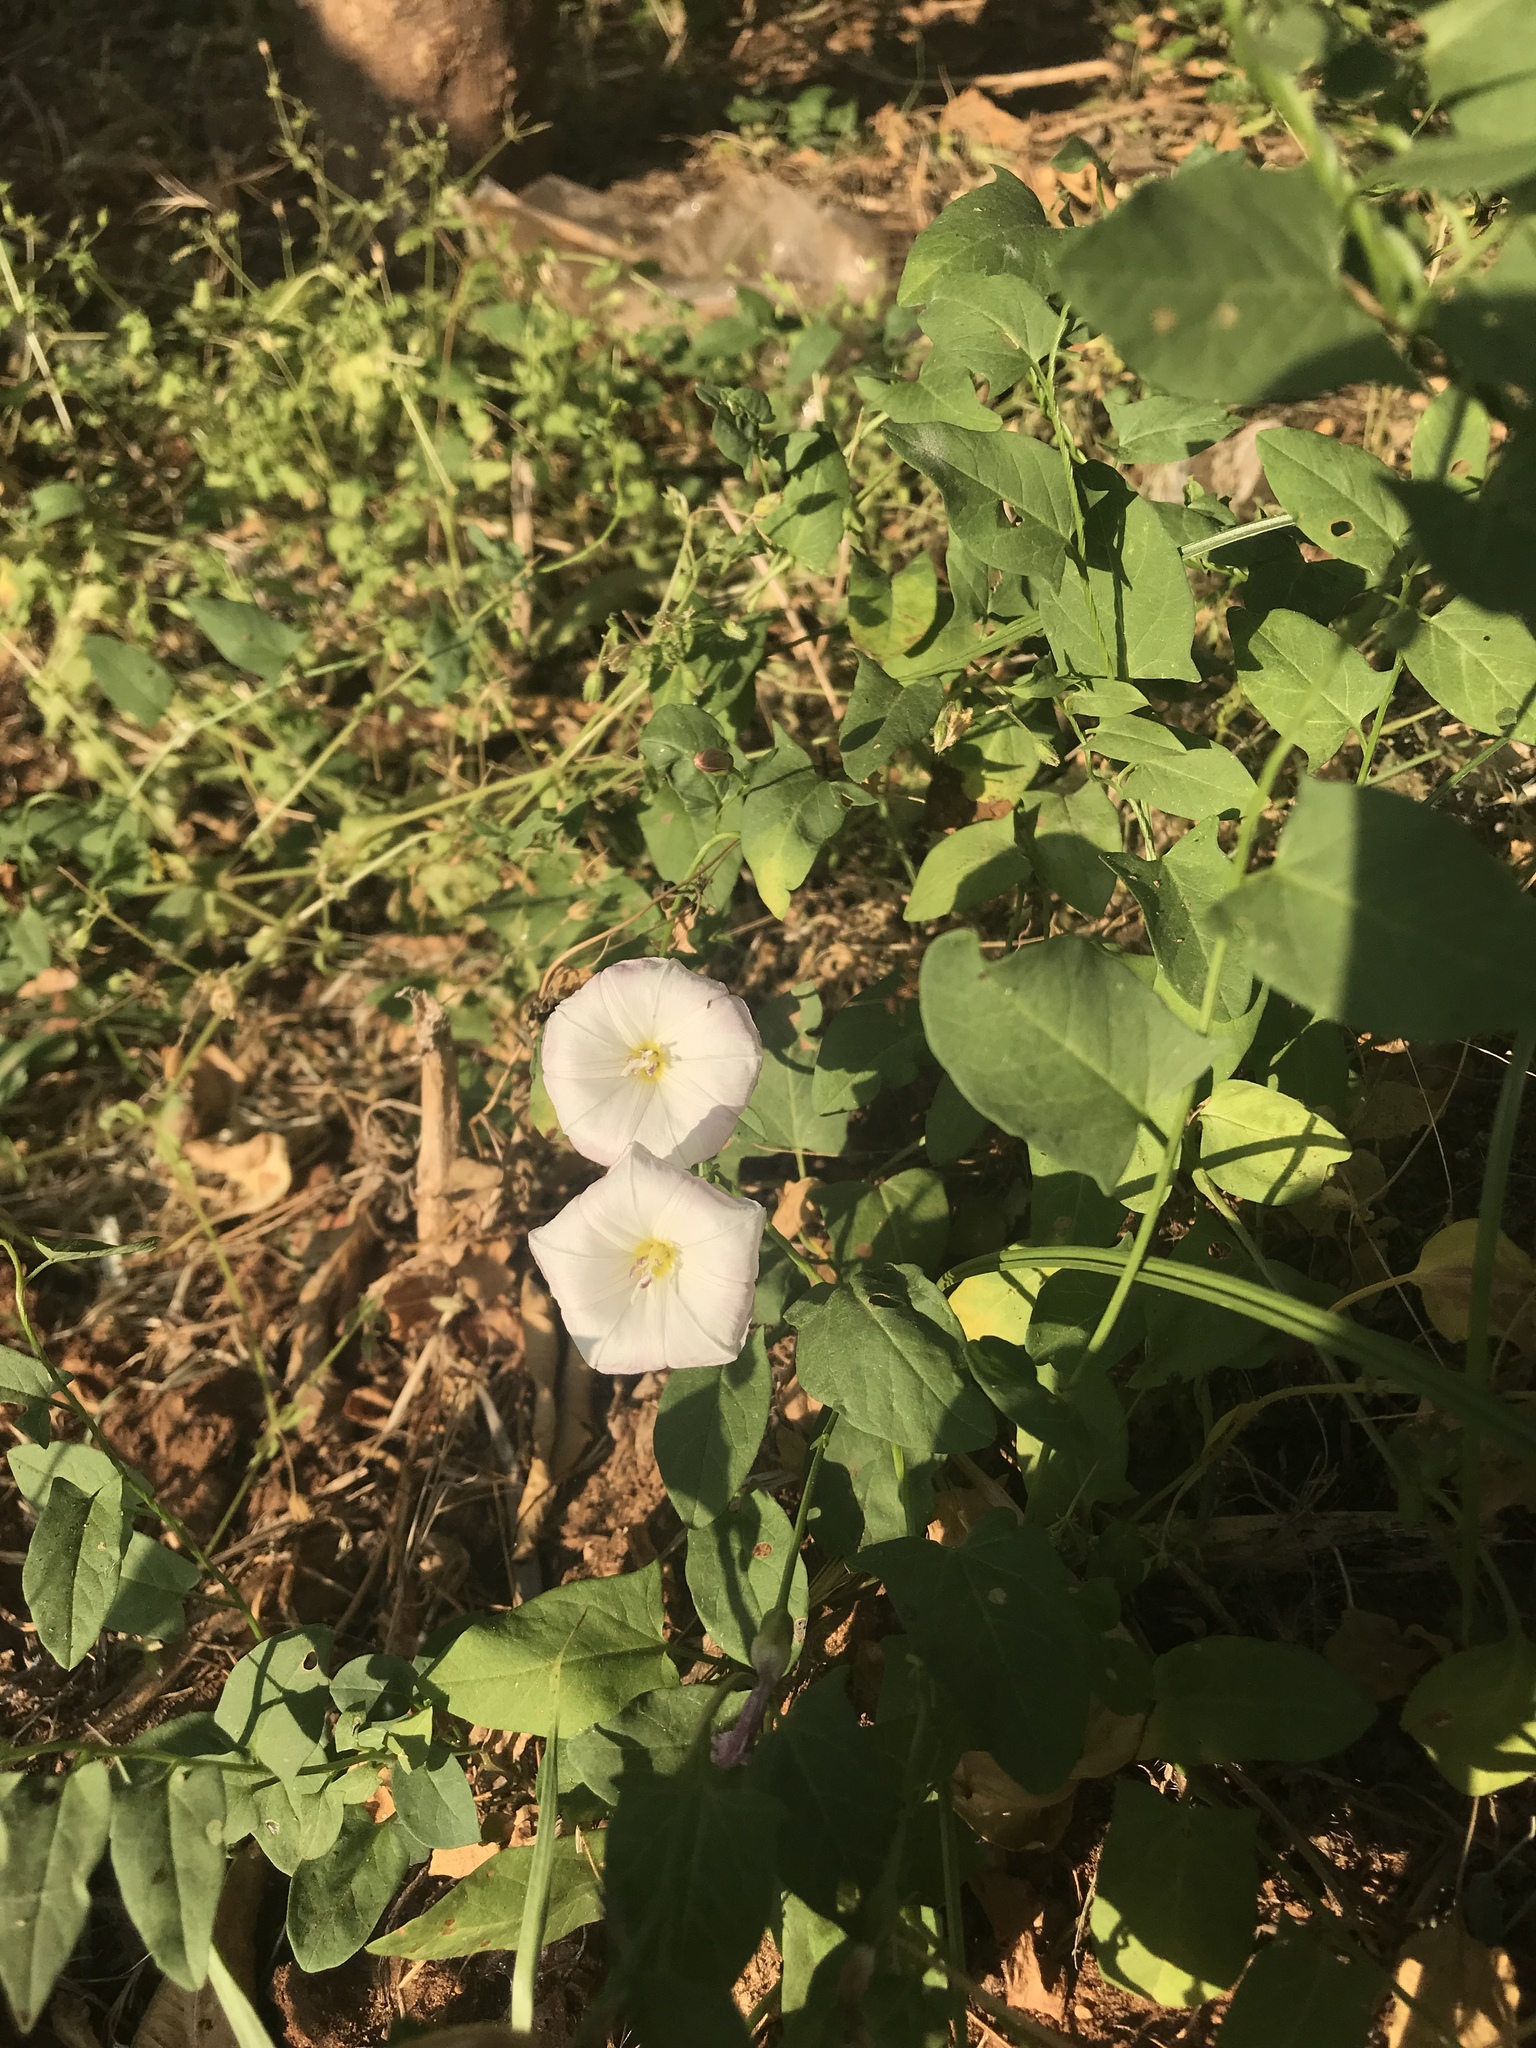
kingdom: Plantae
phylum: Tracheophyta
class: Magnoliopsida
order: Solanales
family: Convolvulaceae
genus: Convolvulus
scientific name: Convolvulus arvensis
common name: Field bindweed
